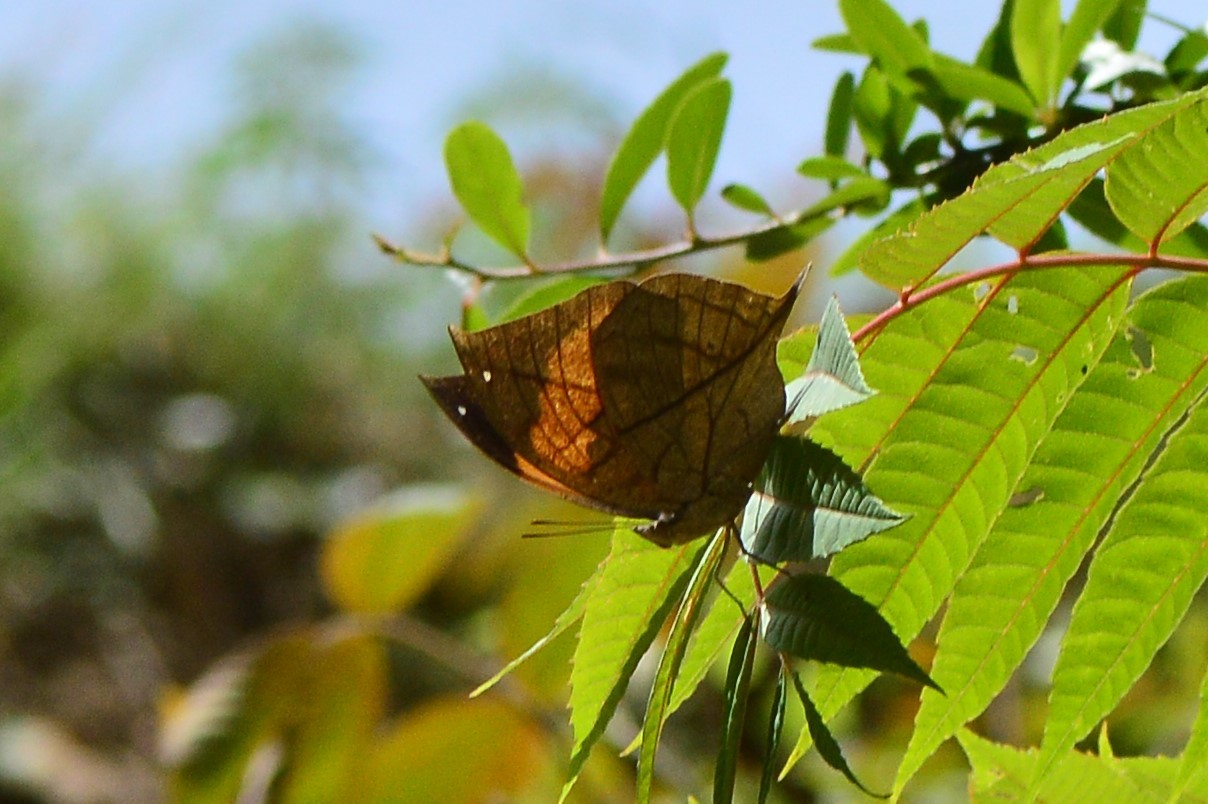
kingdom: Animalia
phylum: Arthropoda
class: Insecta
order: Lepidoptera
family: Nymphalidae
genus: Kallima
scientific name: Kallima inachus
